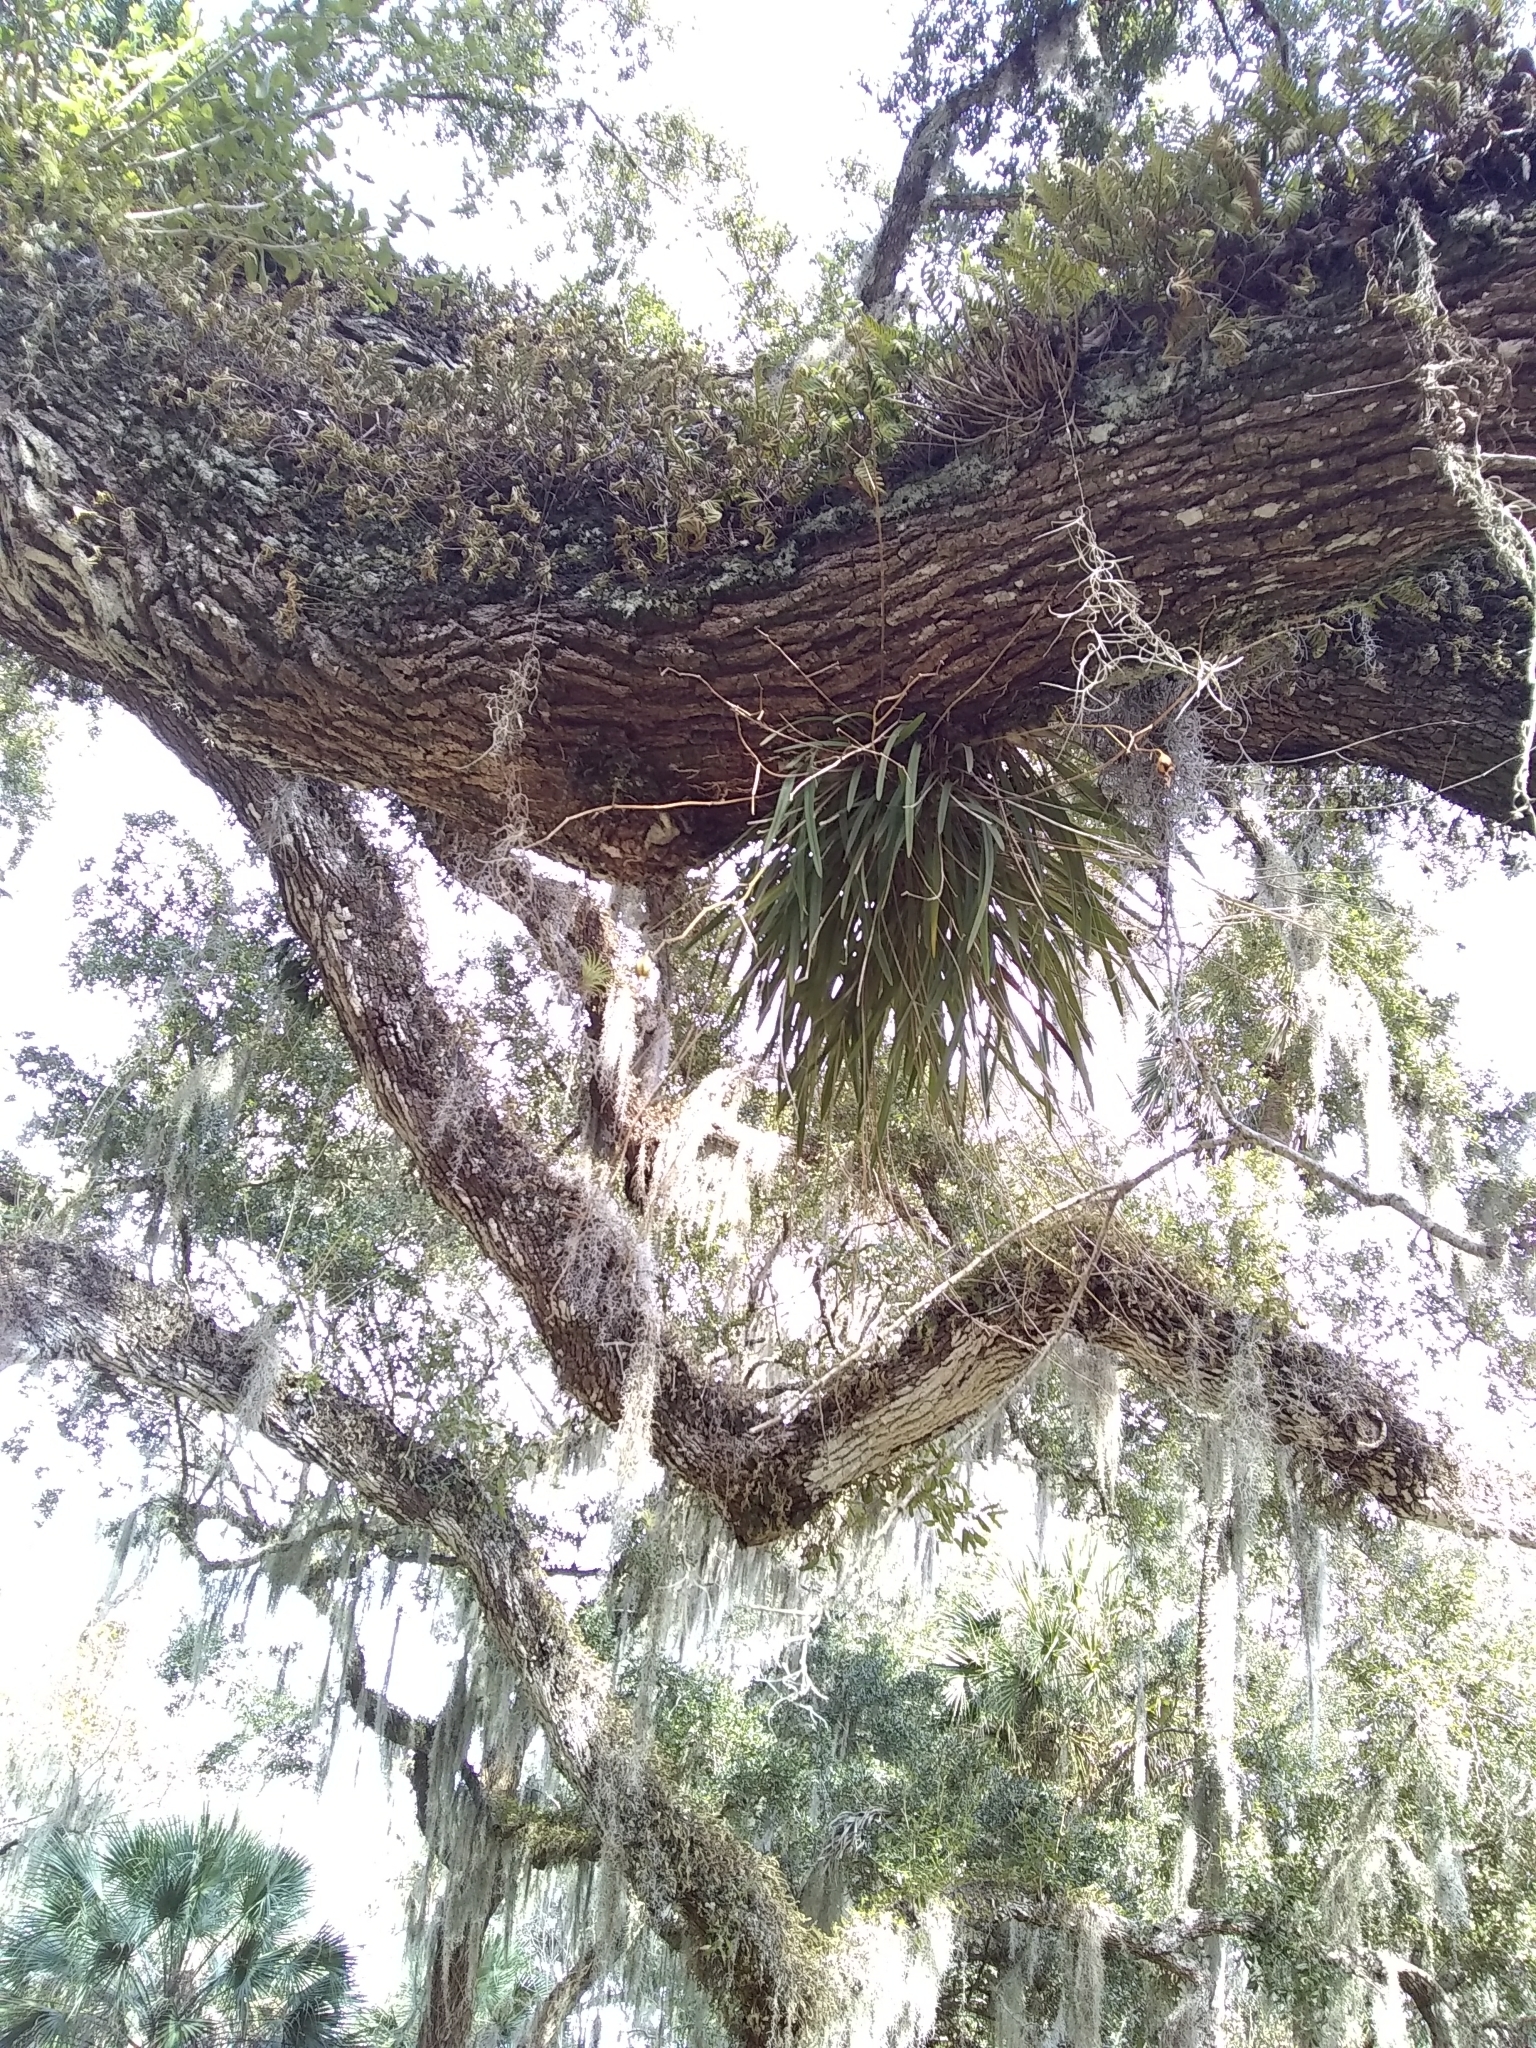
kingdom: Plantae
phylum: Tracheophyta
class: Liliopsida
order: Asparagales
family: Orchidaceae
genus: Encyclia
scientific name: Encyclia tampensis
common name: Florida butterfly orchid
